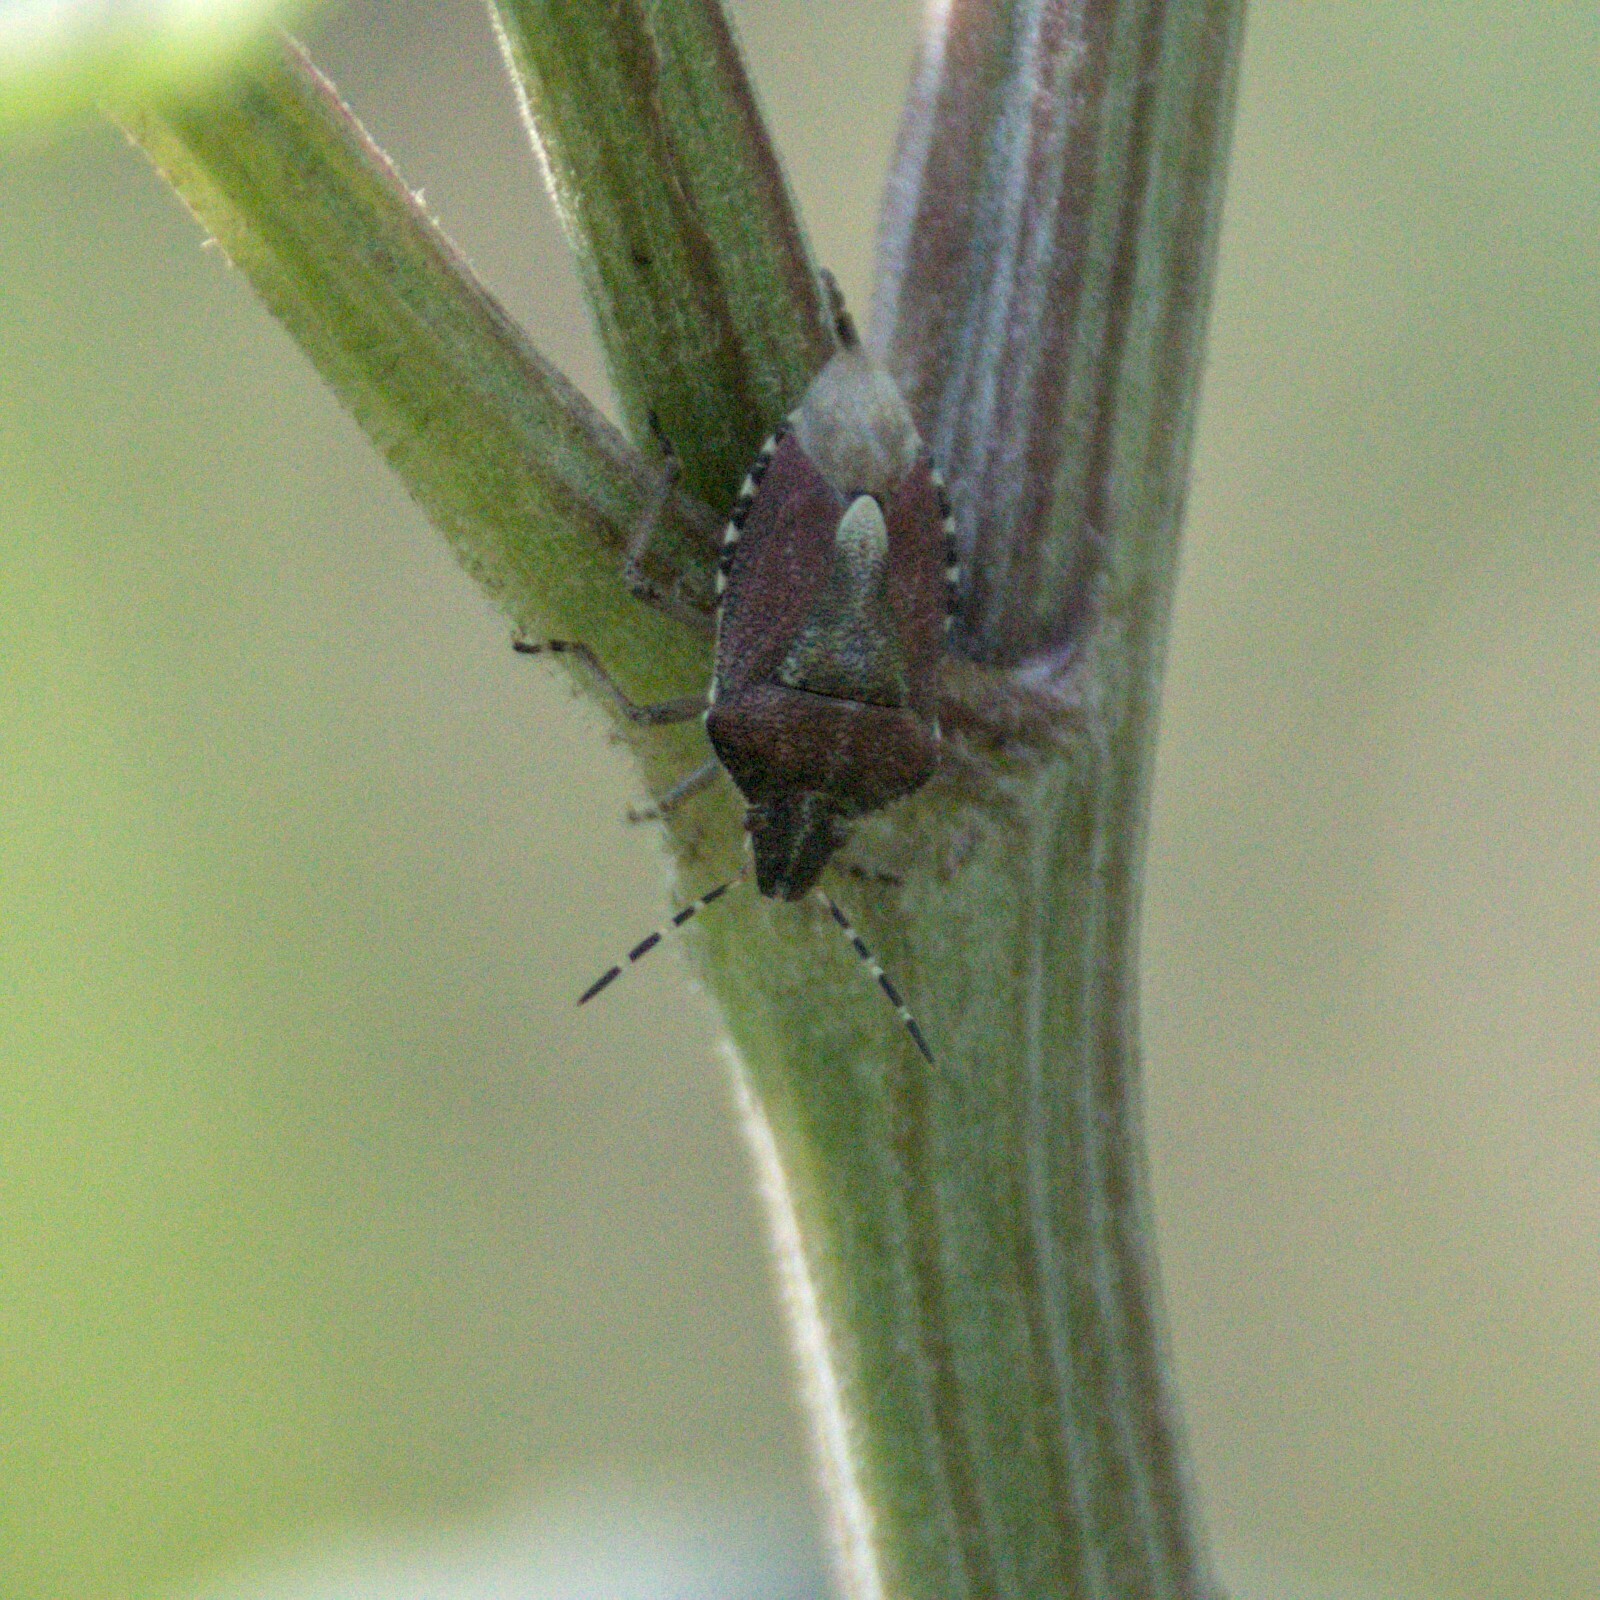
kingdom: Animalia
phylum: Arthropoda
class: Insecta
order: Hemiptera
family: Pentatomidae
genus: Dolycoris
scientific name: Dolycoris baccarum
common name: Sloe bug
